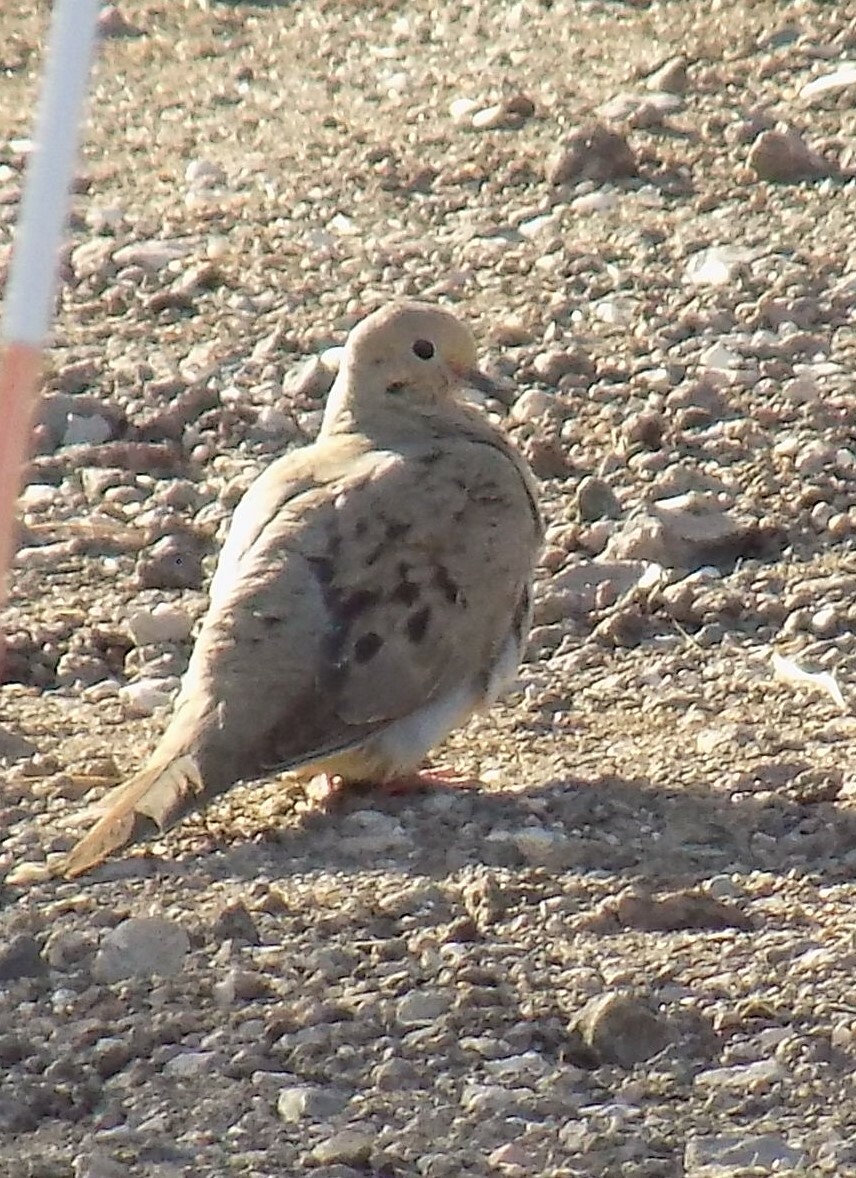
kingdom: Animalia
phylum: Chordata
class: Aves
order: Columbiformes
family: Columbidae
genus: Zenaida
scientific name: Zenaida macroura
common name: Mourning dove
